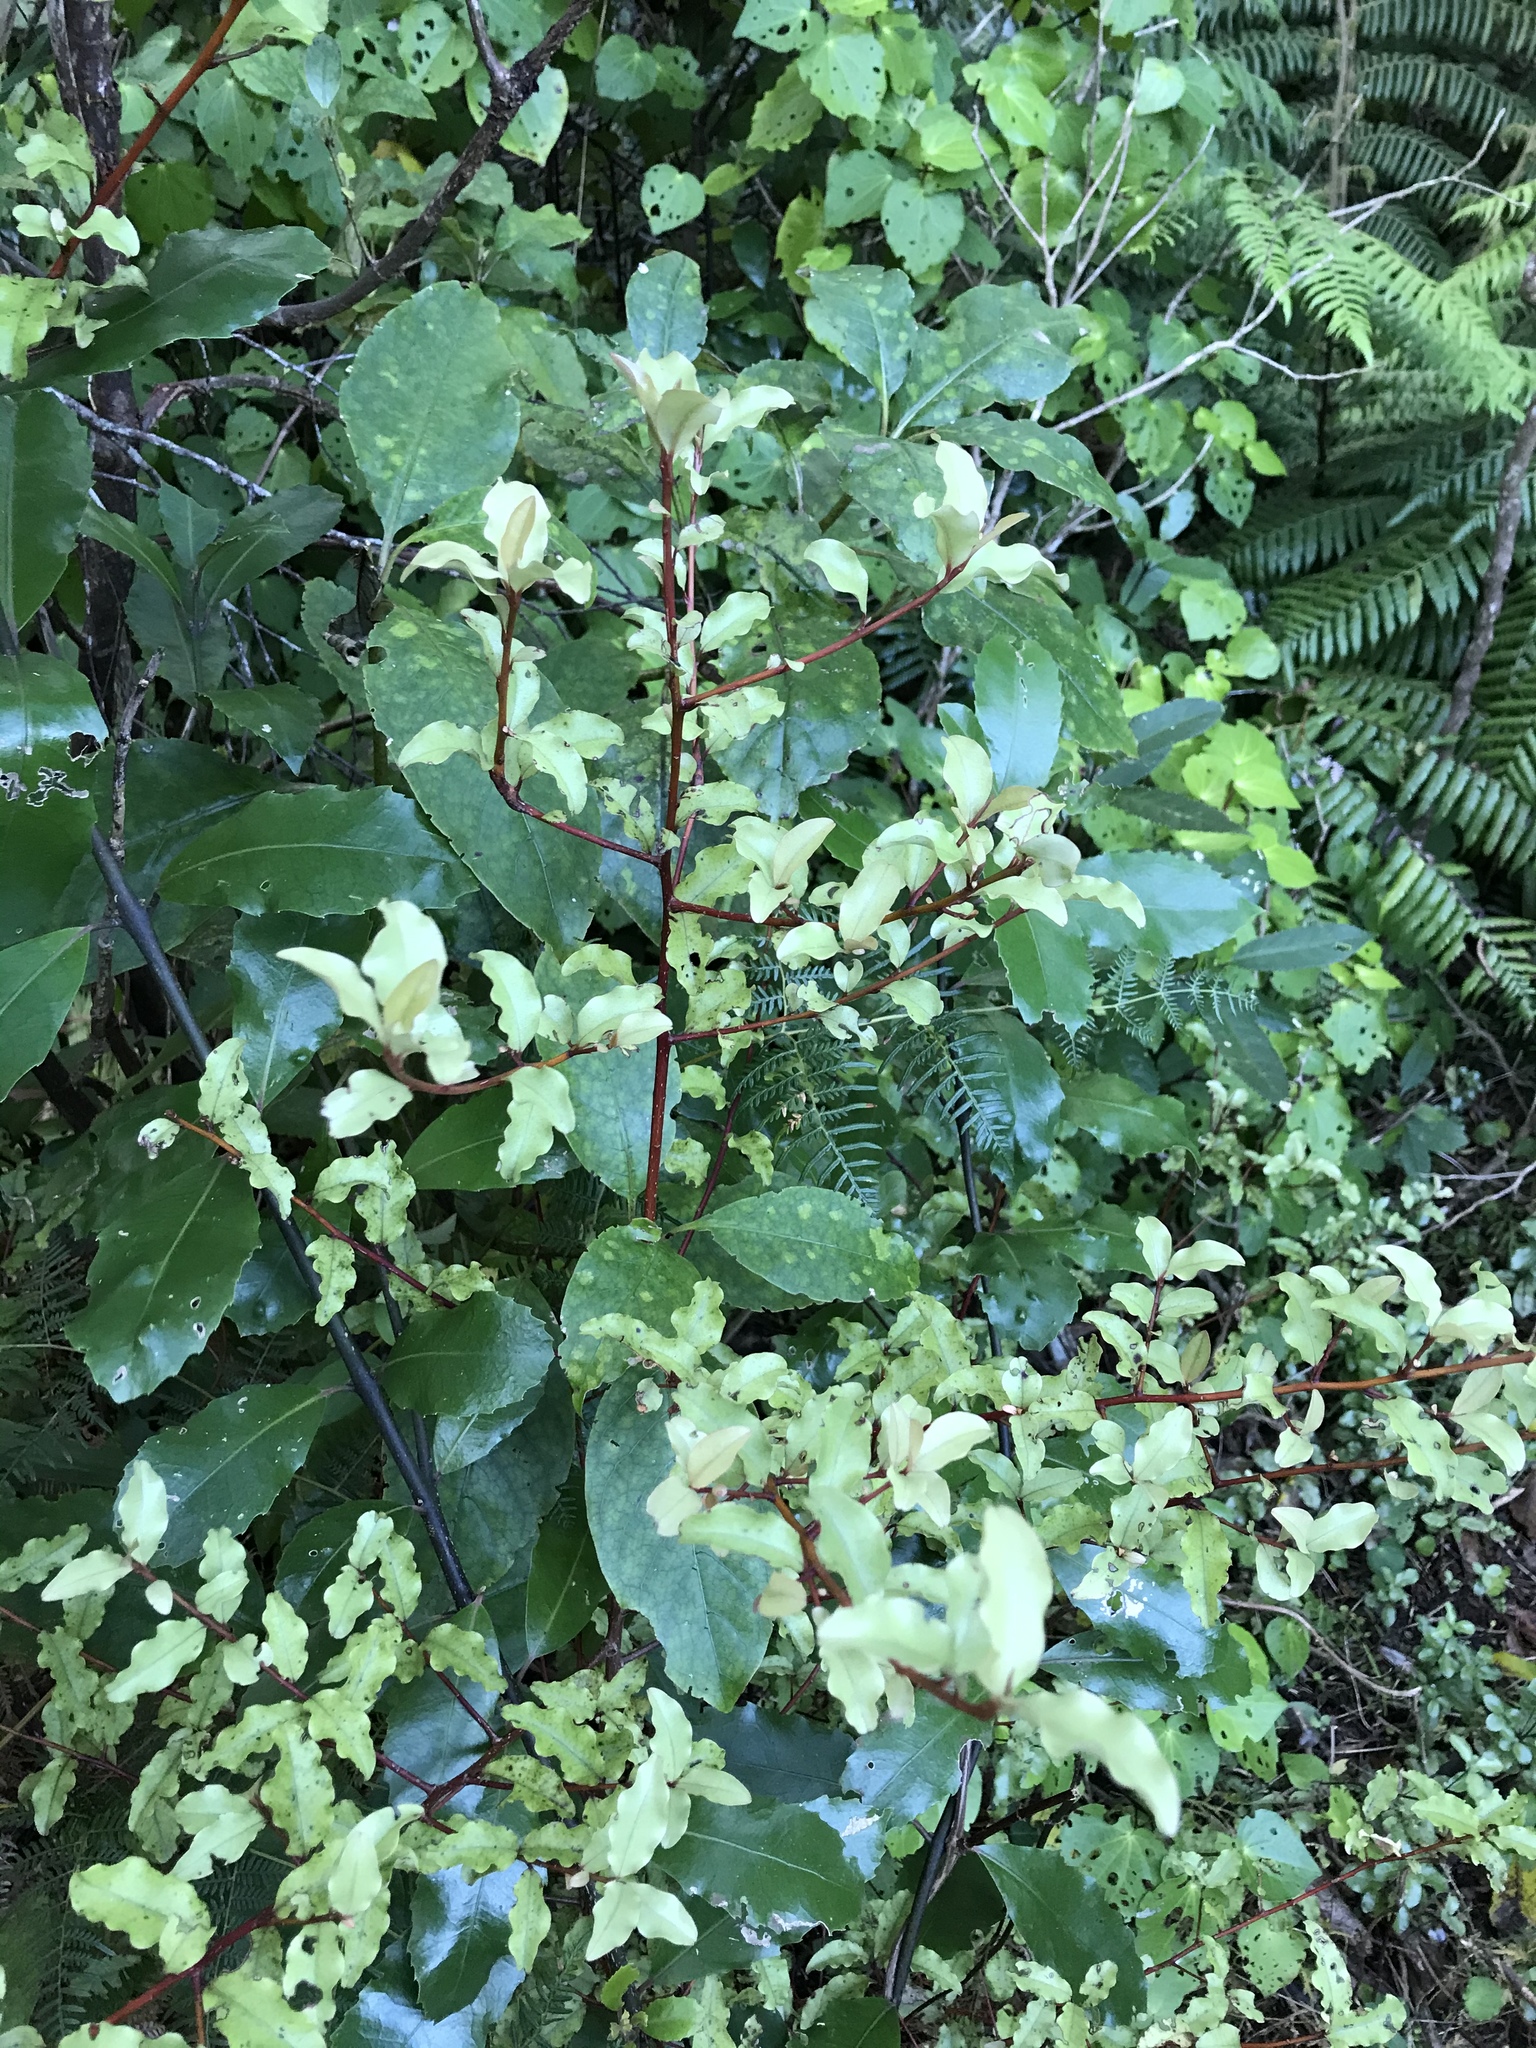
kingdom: Plantae
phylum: Tracheophyta
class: Magnoliopsida
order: Ericales
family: Primulaceae
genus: Myrsine
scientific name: Myrsine australis
